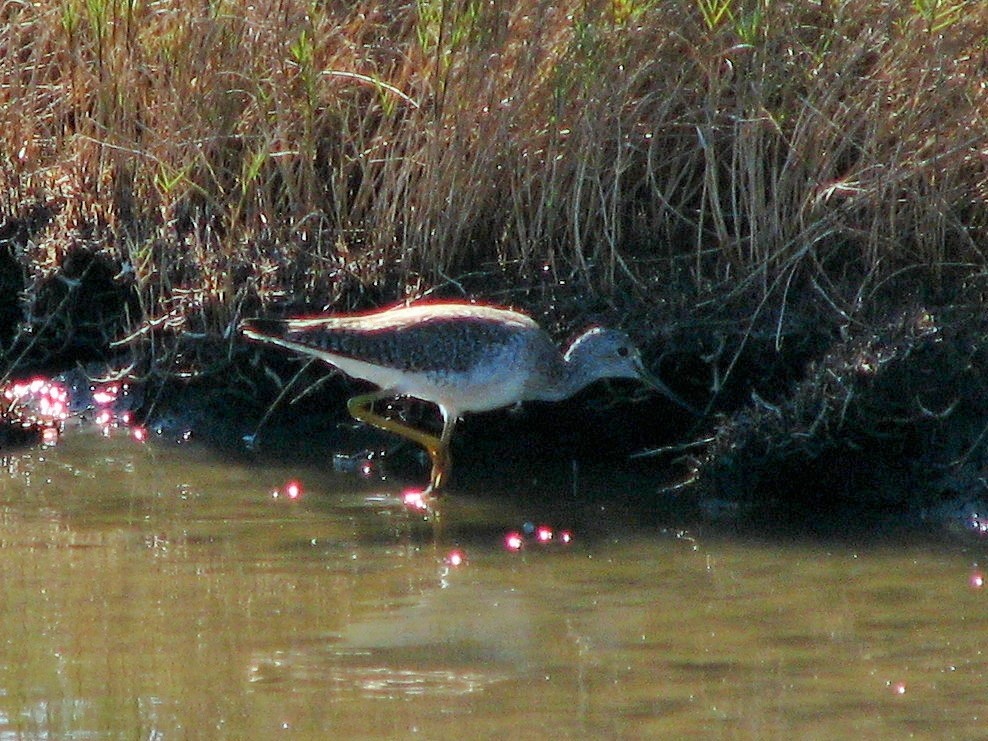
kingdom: Animalia
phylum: Chordata
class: Aves
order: Charadriiformes
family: Scolopacidae
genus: Tringa
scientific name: Tringa melanoleuca
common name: Greater yellowlegs
